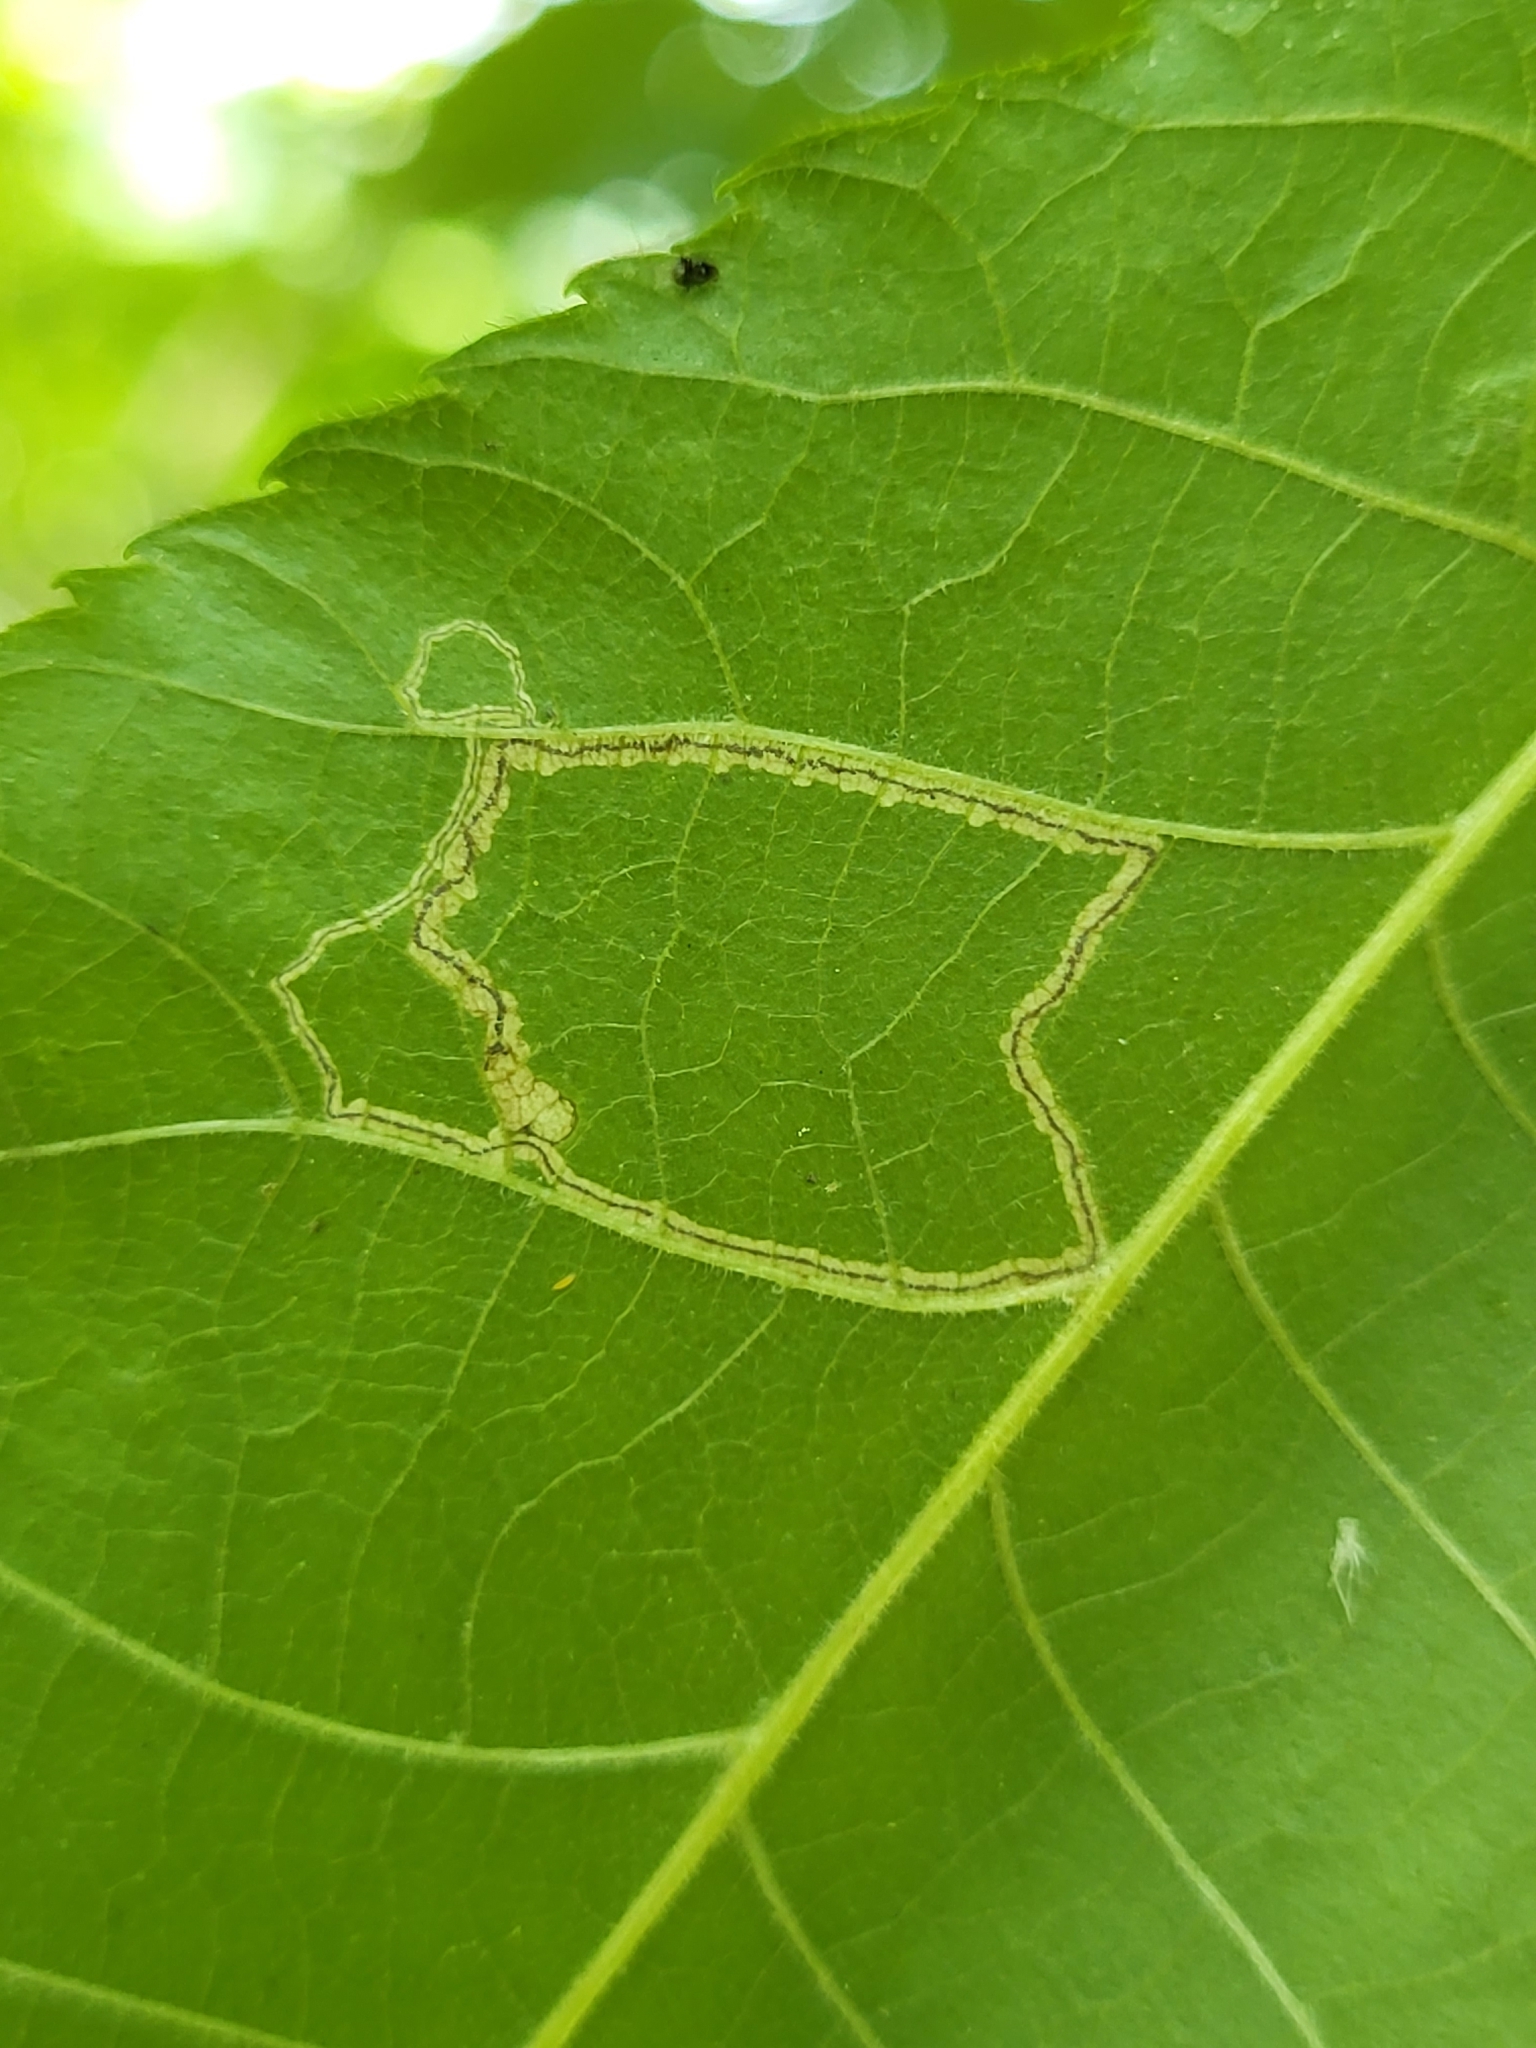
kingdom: Animalia
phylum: Arthropoda
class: Insecta
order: Lepidoptera
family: Nepticulidae
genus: Stigmella
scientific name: Stigmella caryaefoliella
